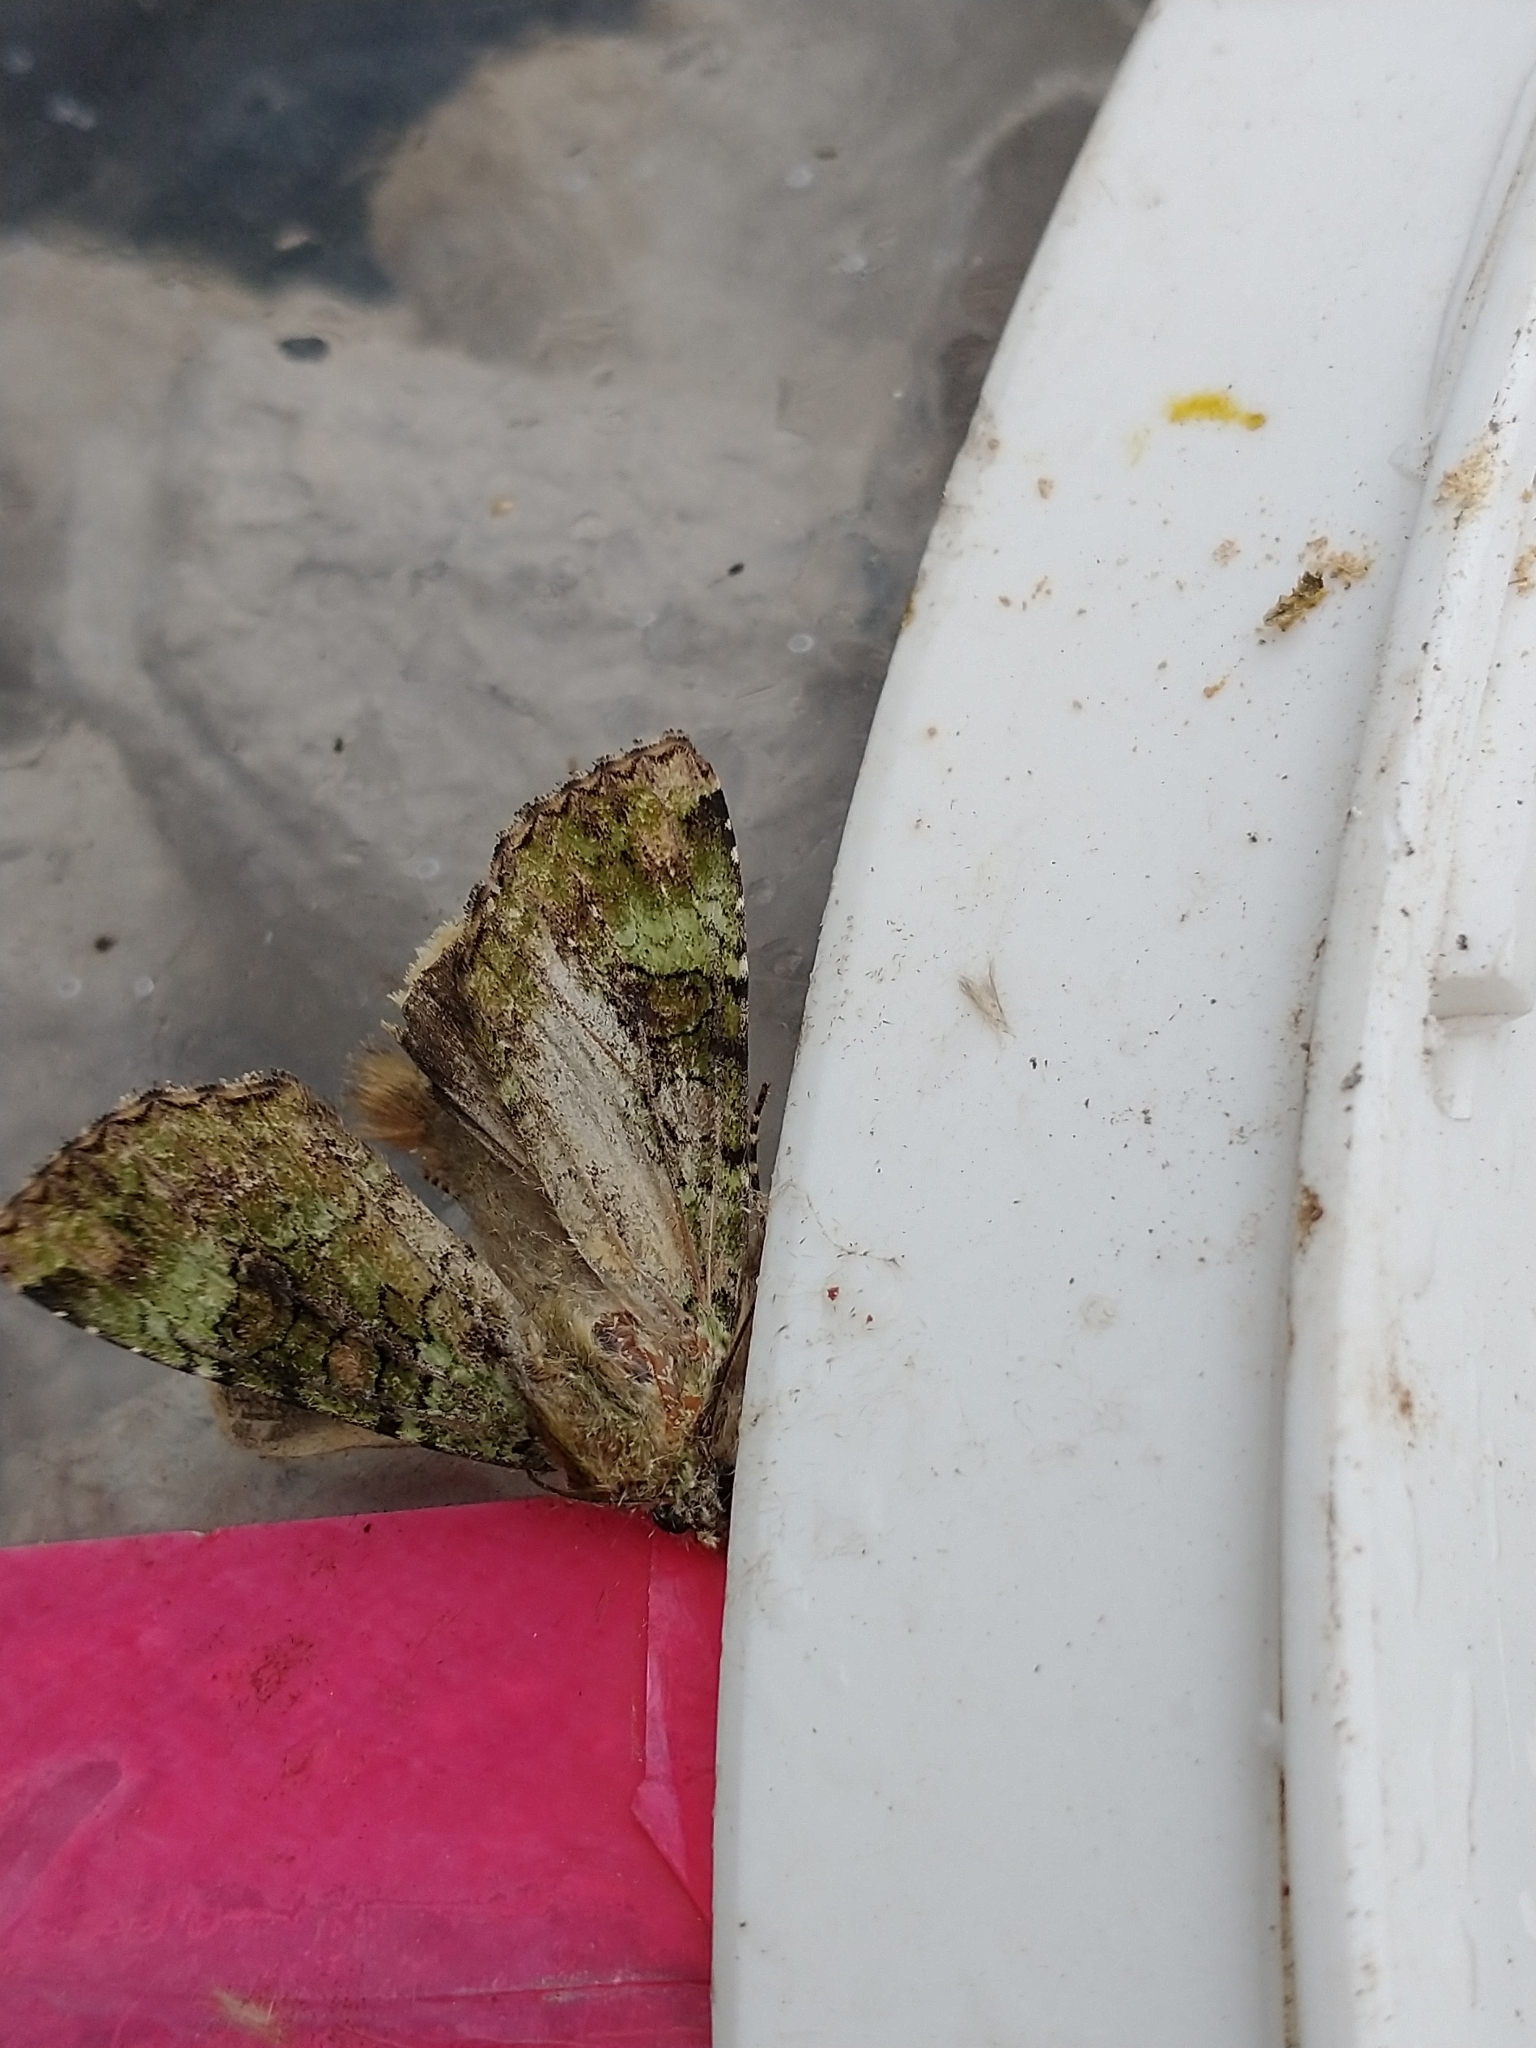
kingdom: Animalia
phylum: Arthropoda
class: Insecta
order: Lepidoptera
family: Noctuidae
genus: Anaplectoides
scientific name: Anaplectoides prasina
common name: Green arches
